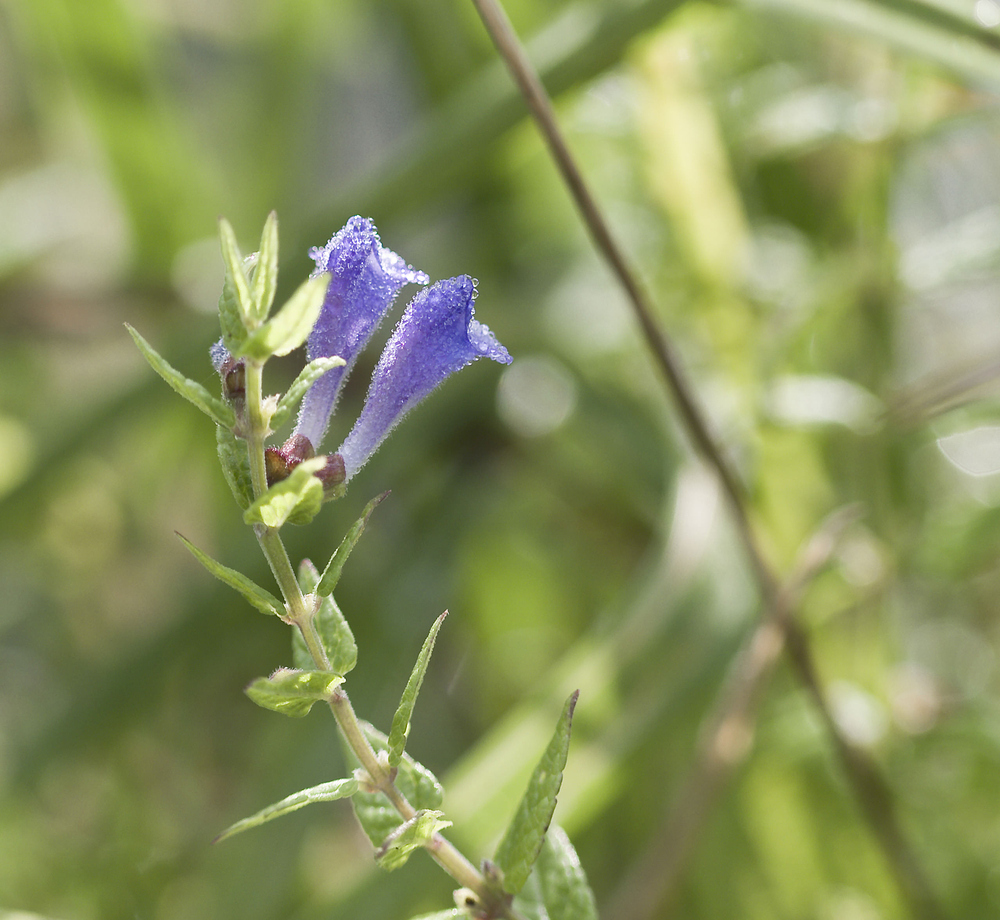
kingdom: Plantae
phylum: Tracheophyta
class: Magnoliopsida
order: Lamiales
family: Lamiaceae
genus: Scutellaria
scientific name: Scutellaria galericulata
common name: Skullcap
